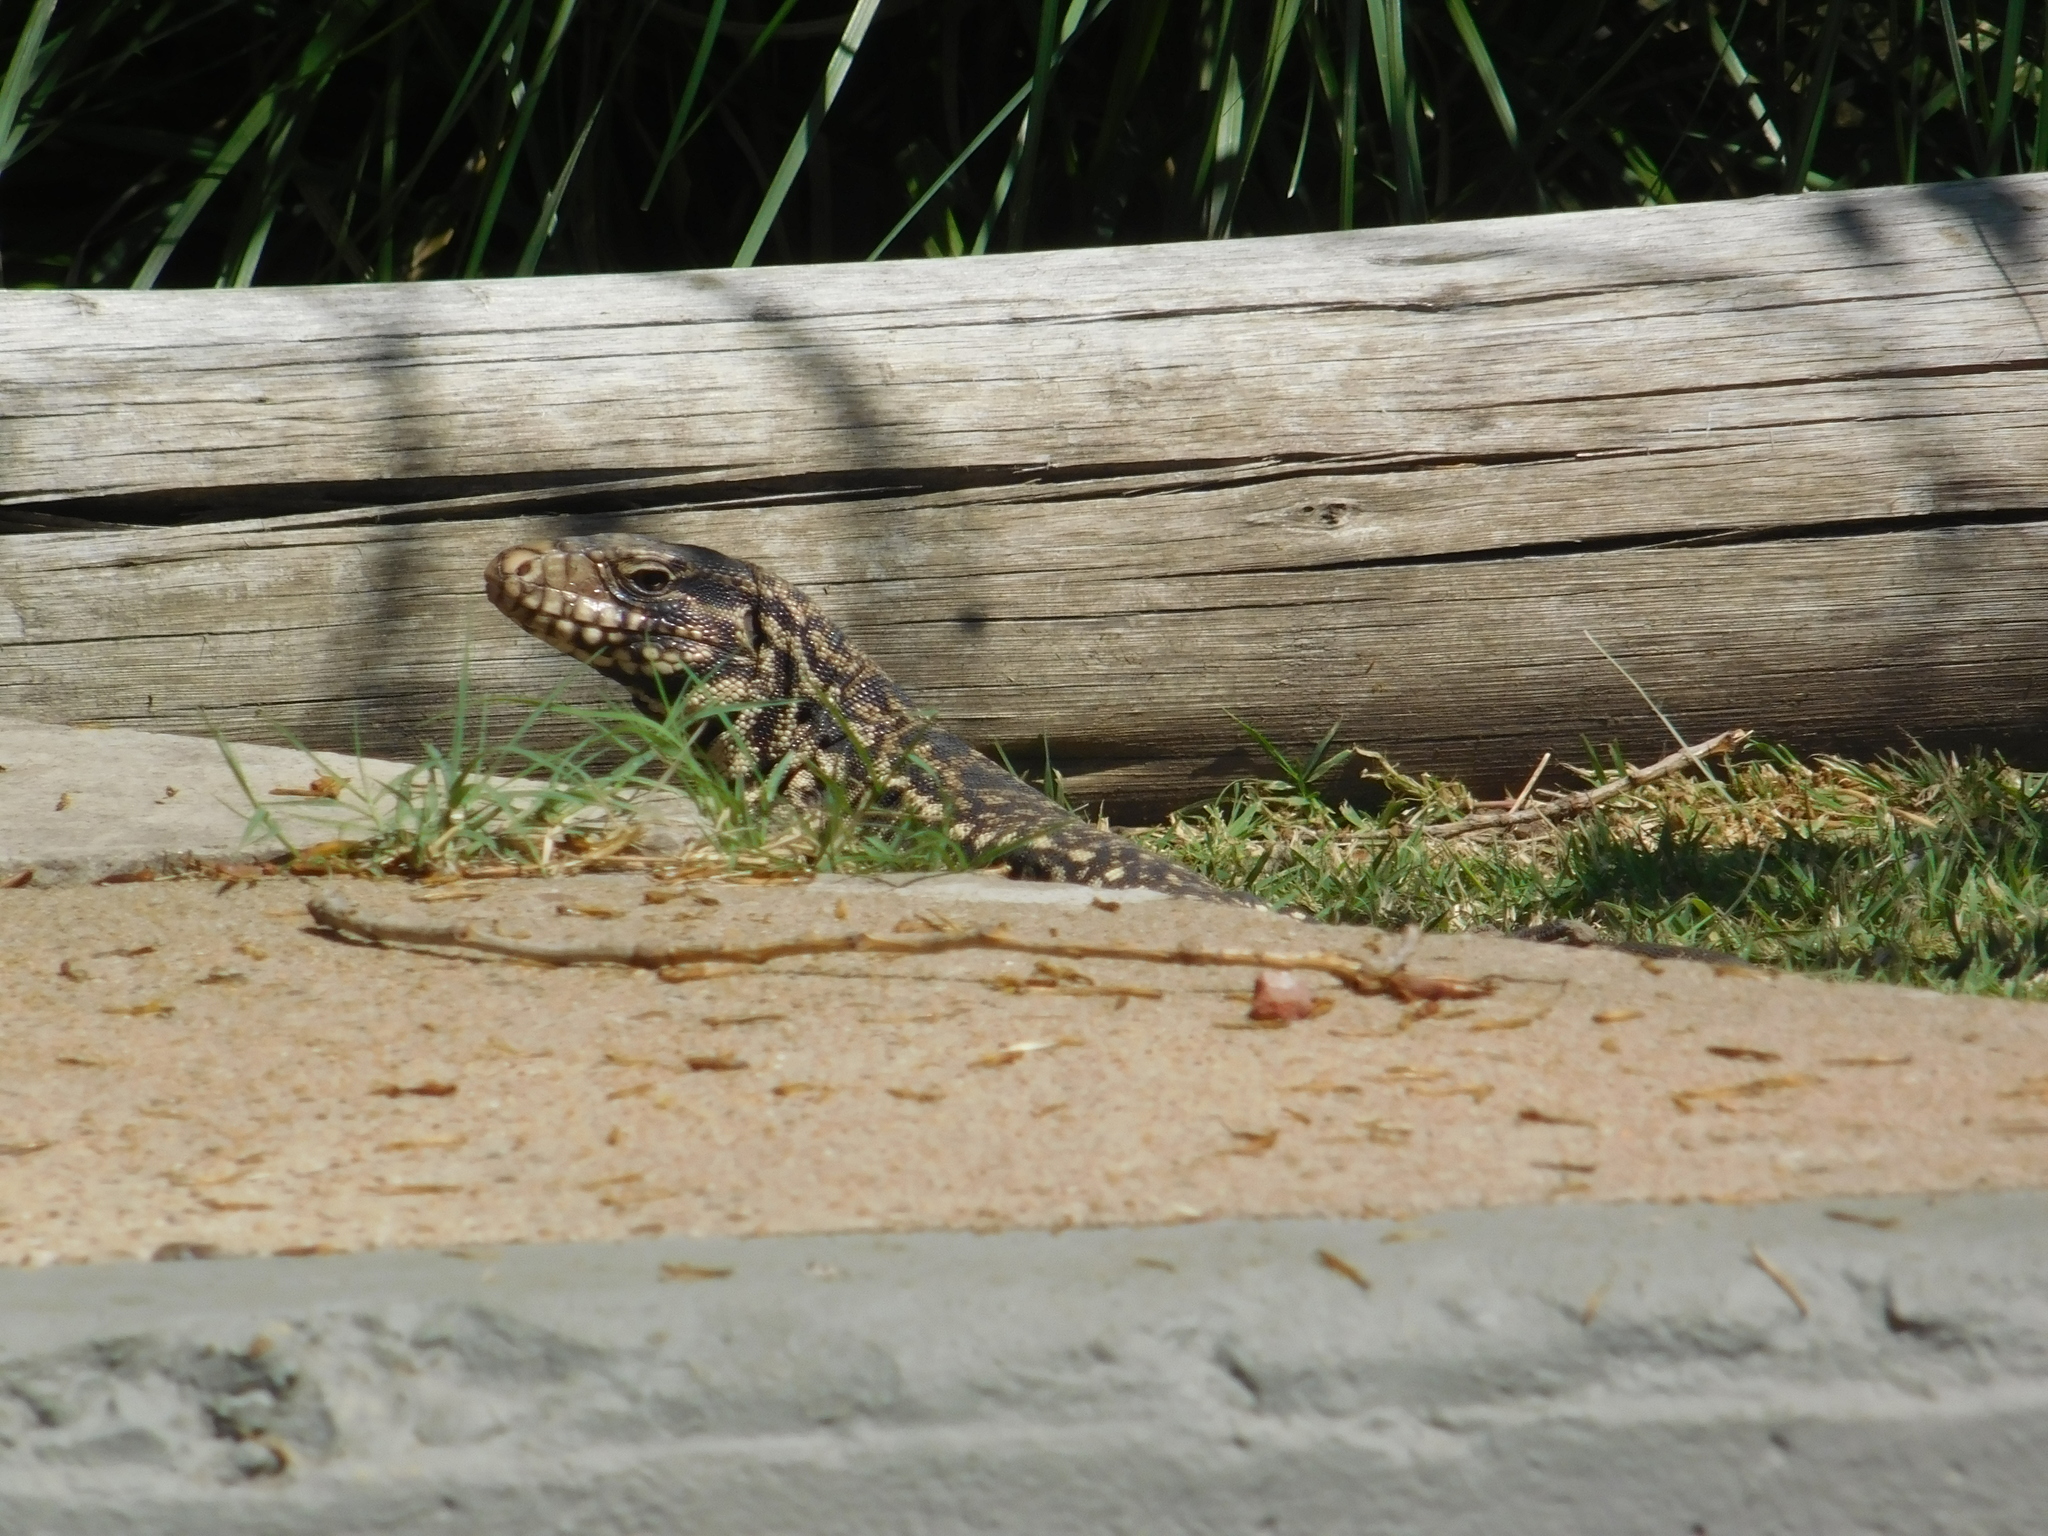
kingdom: Animalia
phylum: Chordata
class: Squamata
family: Teiidae
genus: Salvator
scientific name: Salvator merianae
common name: Argentine black and white tegu
